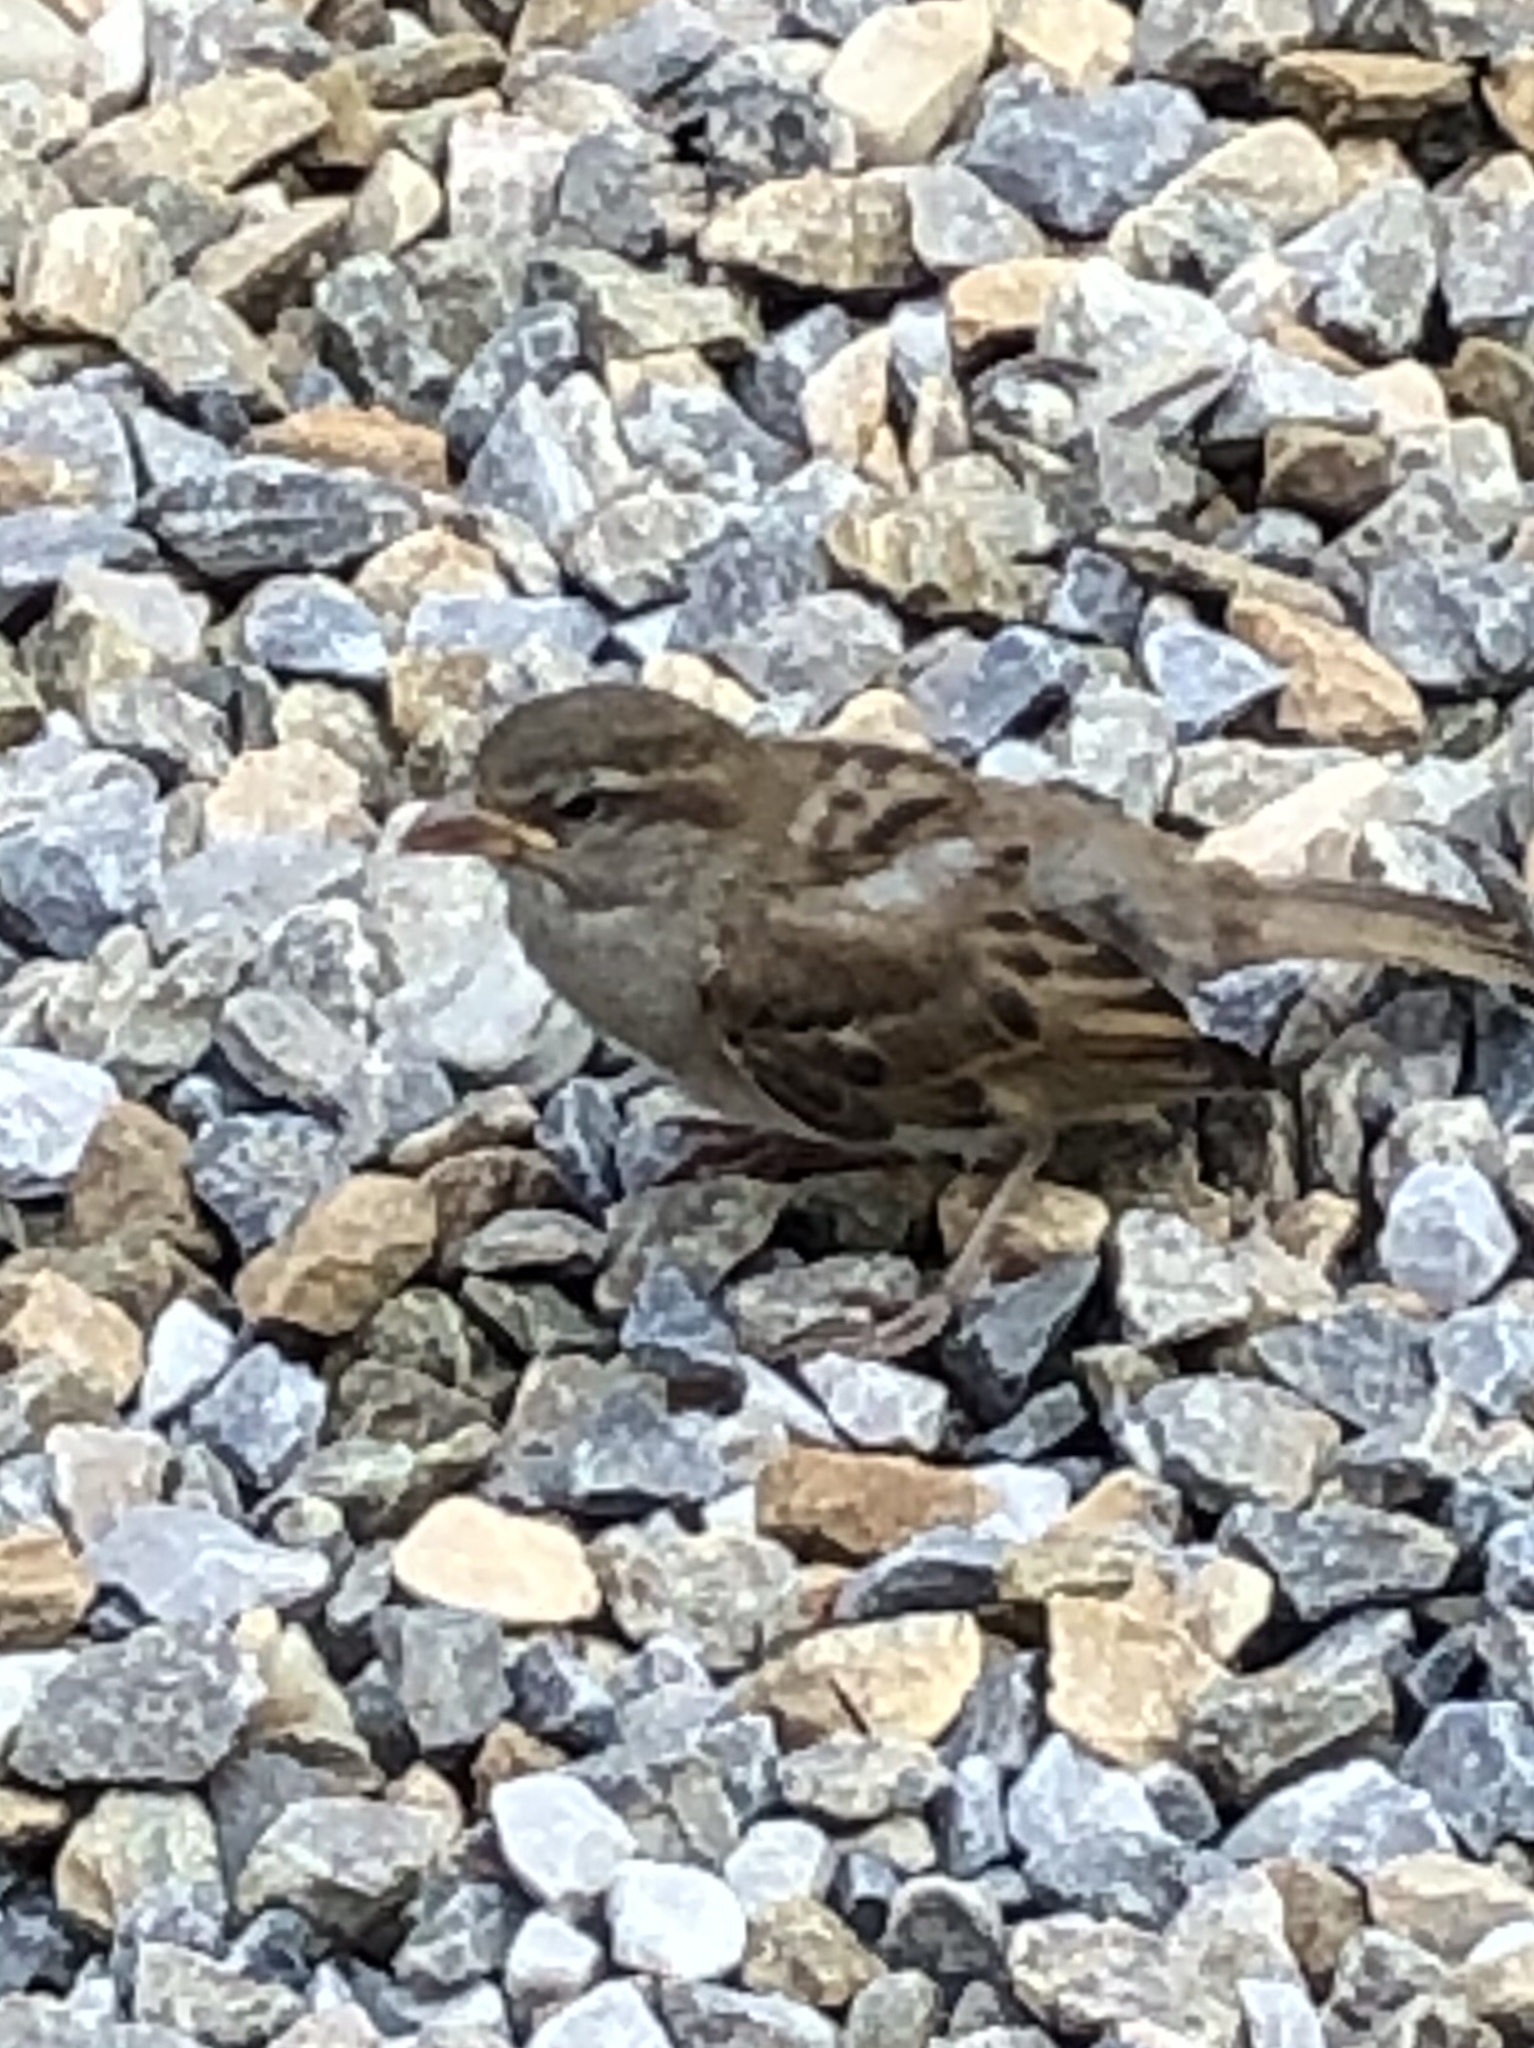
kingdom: Animalia
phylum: Chordata
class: Aves
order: Passeriformes
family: Passeridae
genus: Passer
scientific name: Passer domesticus
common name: House sparrow
